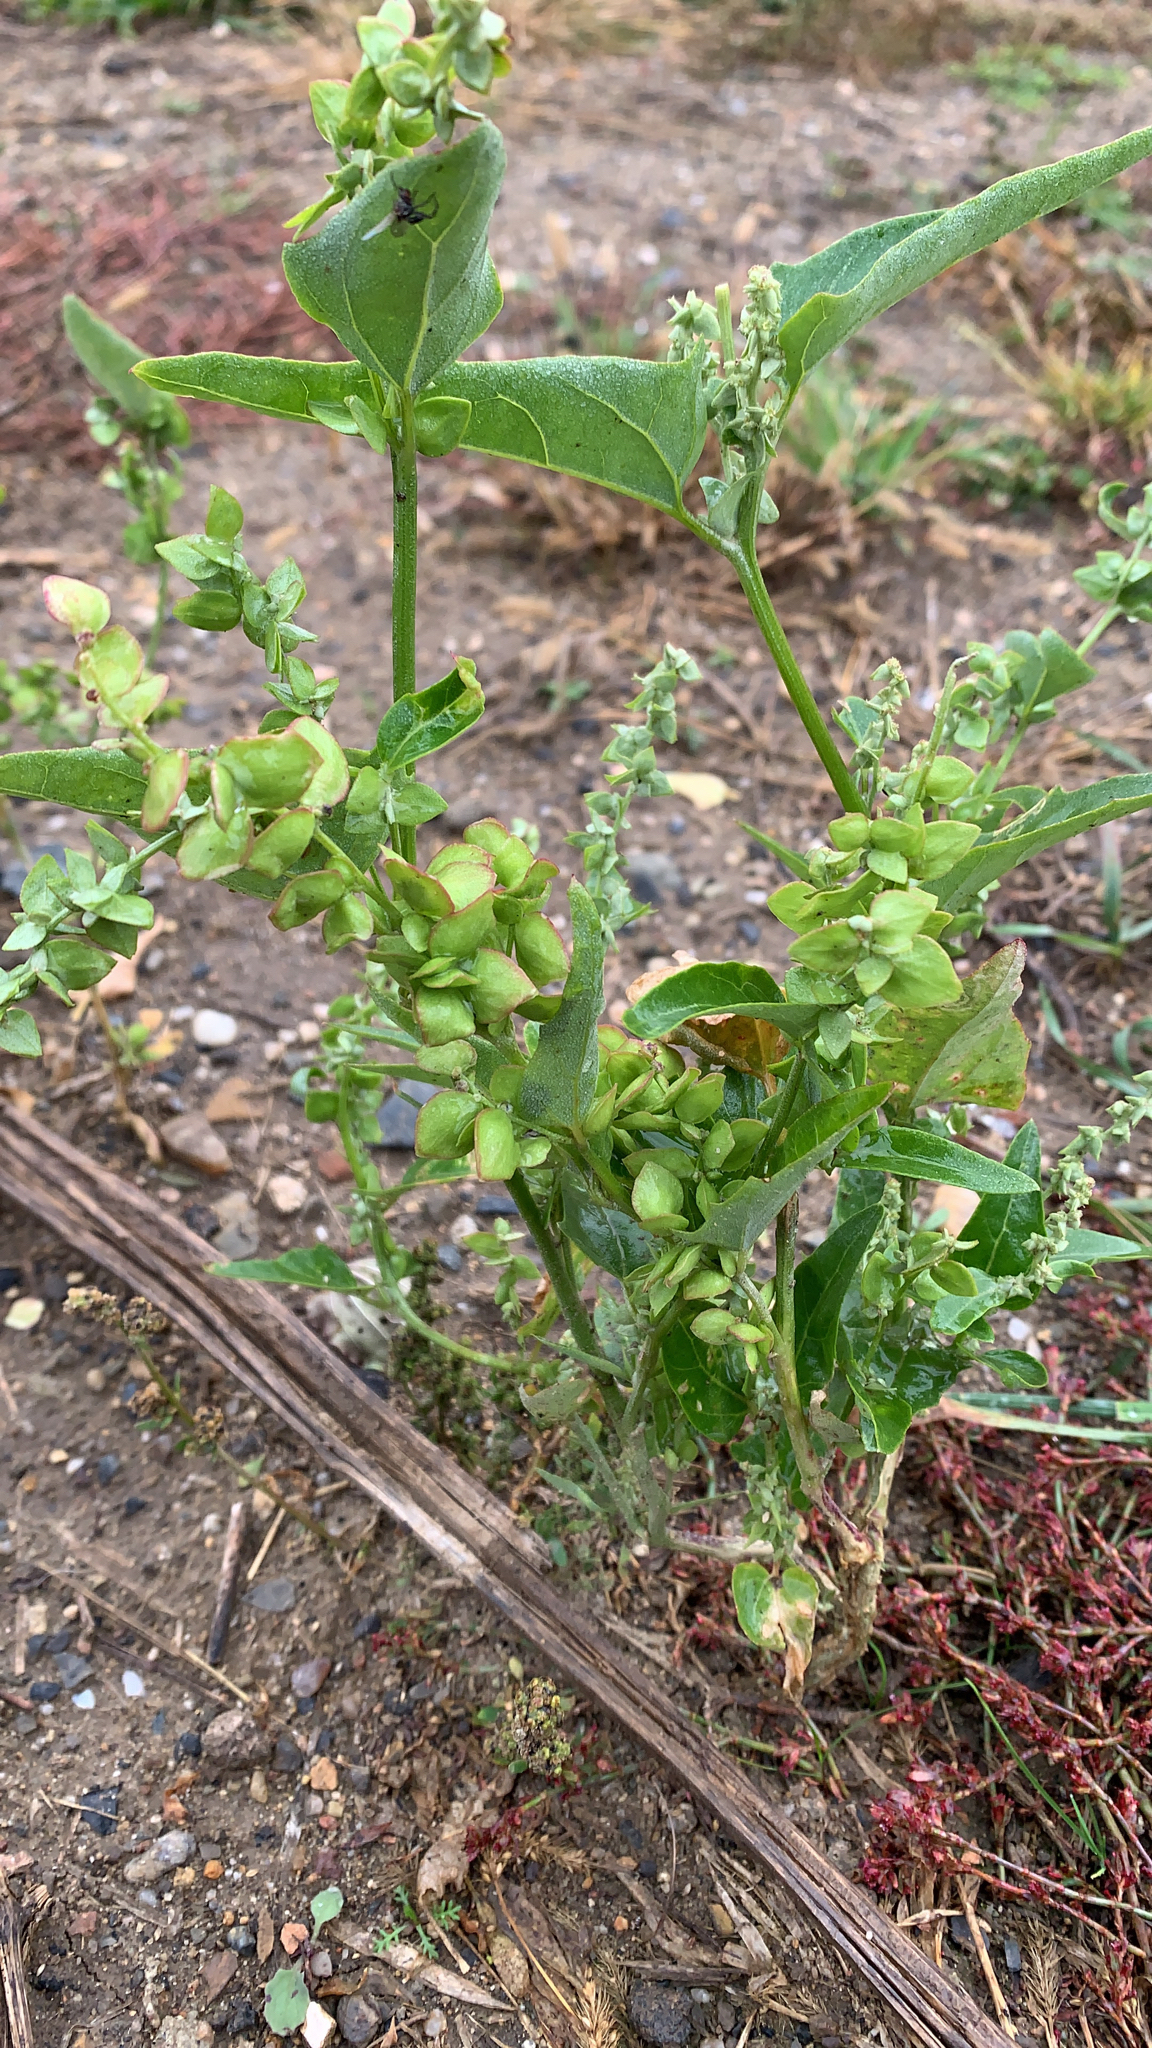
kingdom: Plantae
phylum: Tracheophyta
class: Magnoliopsida
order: Caryophyllales
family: Amaranthaceae
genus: Atriplex
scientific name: Atriplex sagittata
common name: Purple orache
